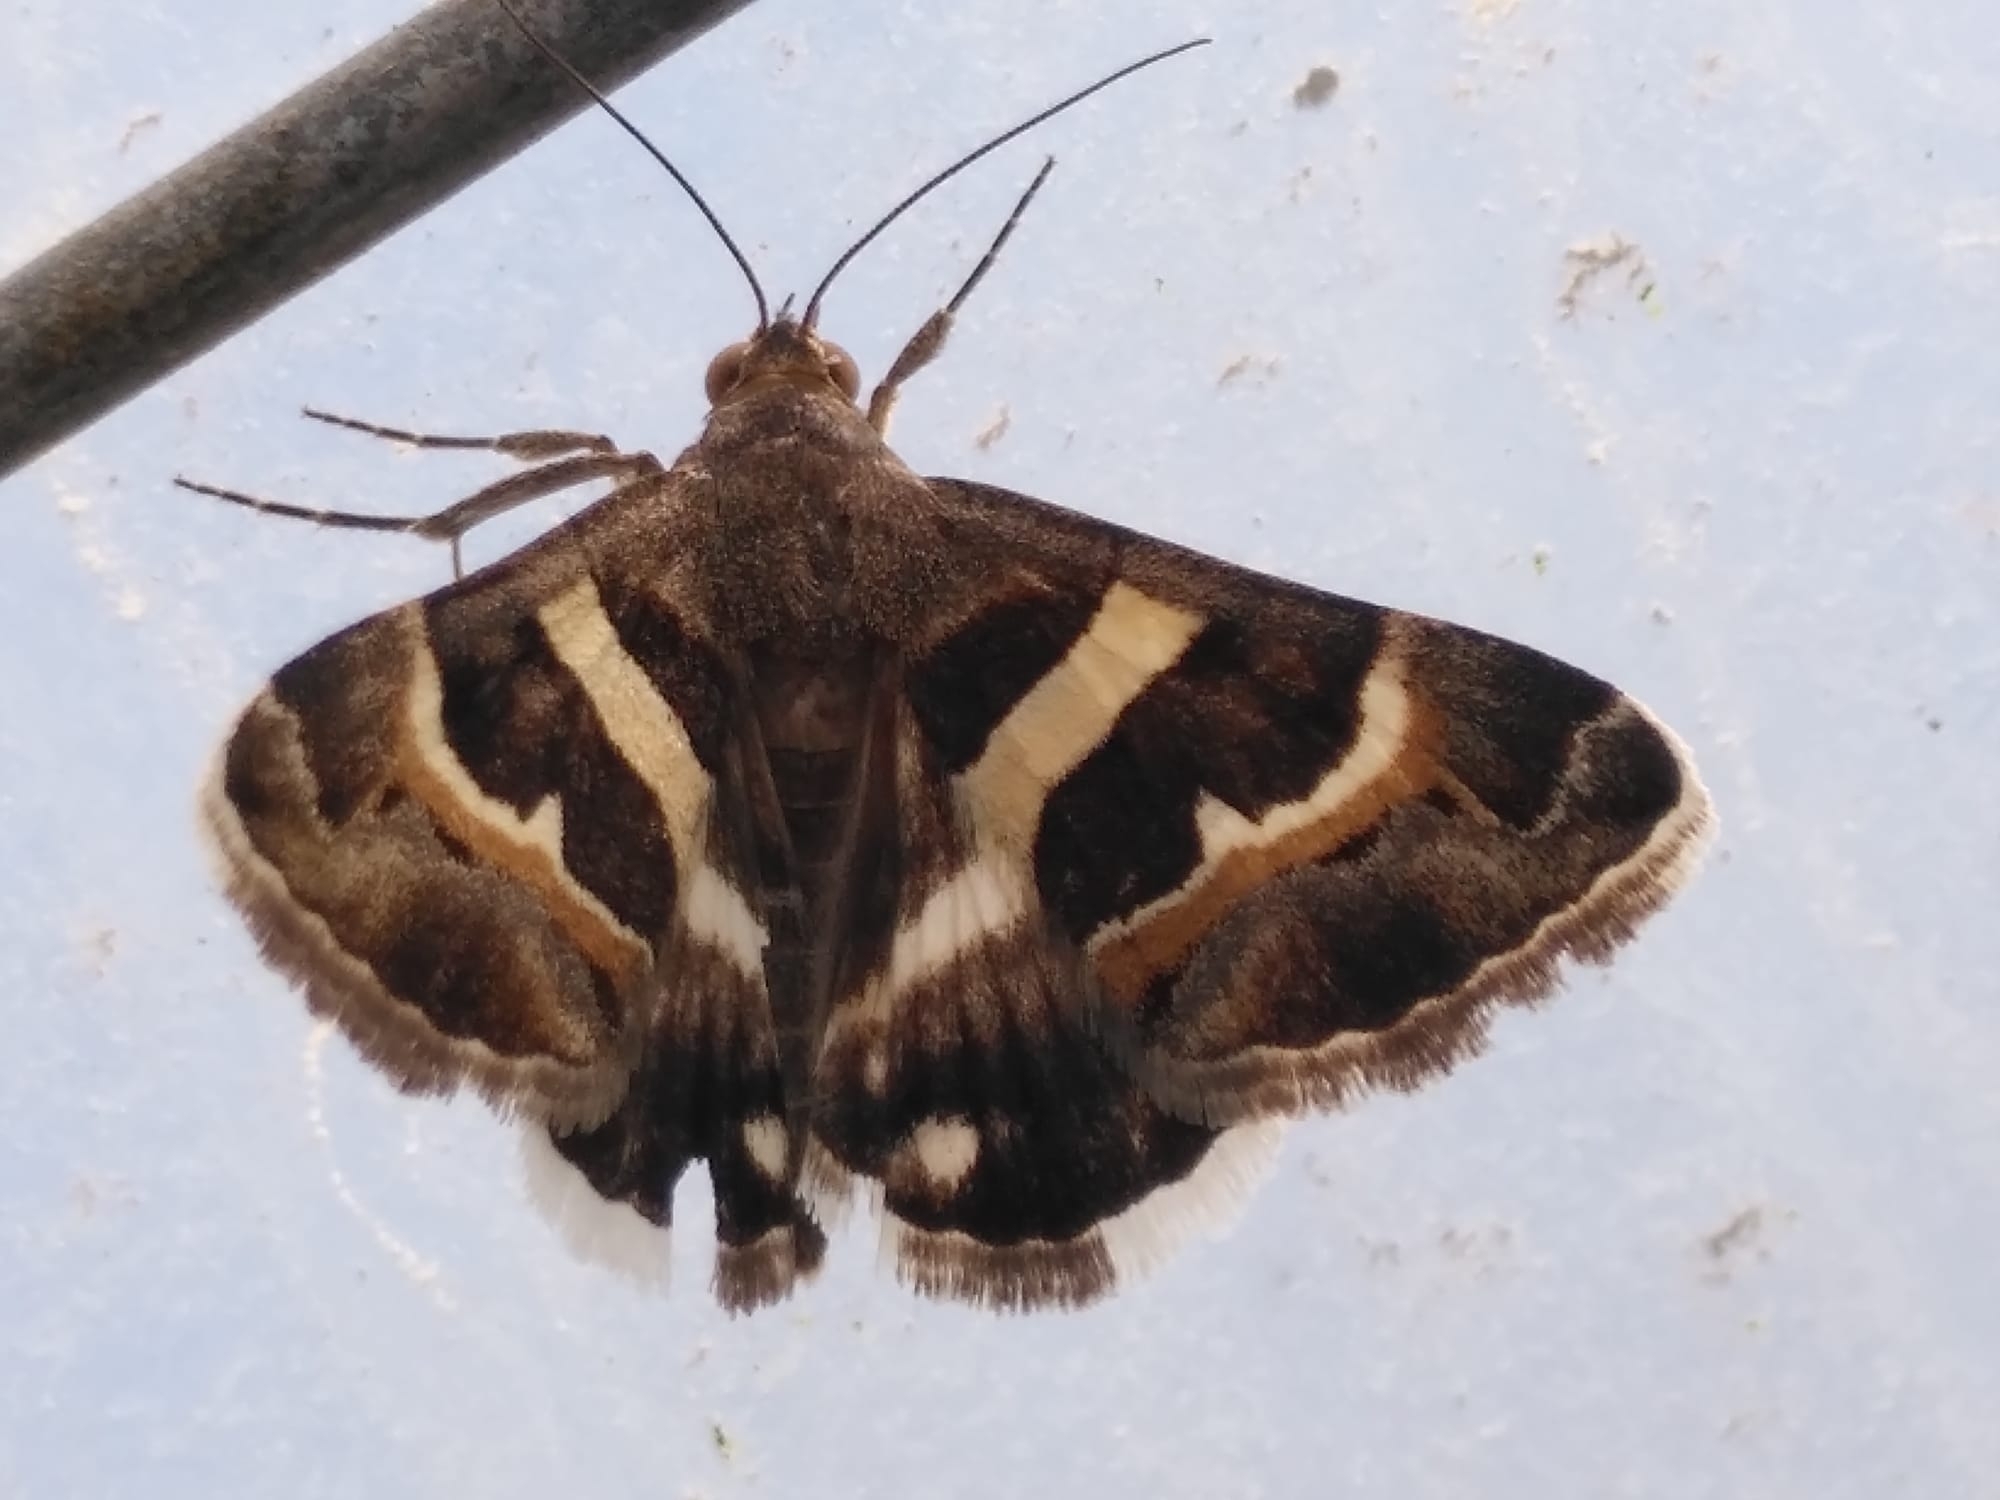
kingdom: Animalia
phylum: Arthropoda
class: Insecta
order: Lepidoptera
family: Erebidae
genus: Grammodes
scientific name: Grammodes stolida
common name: Geometrician
